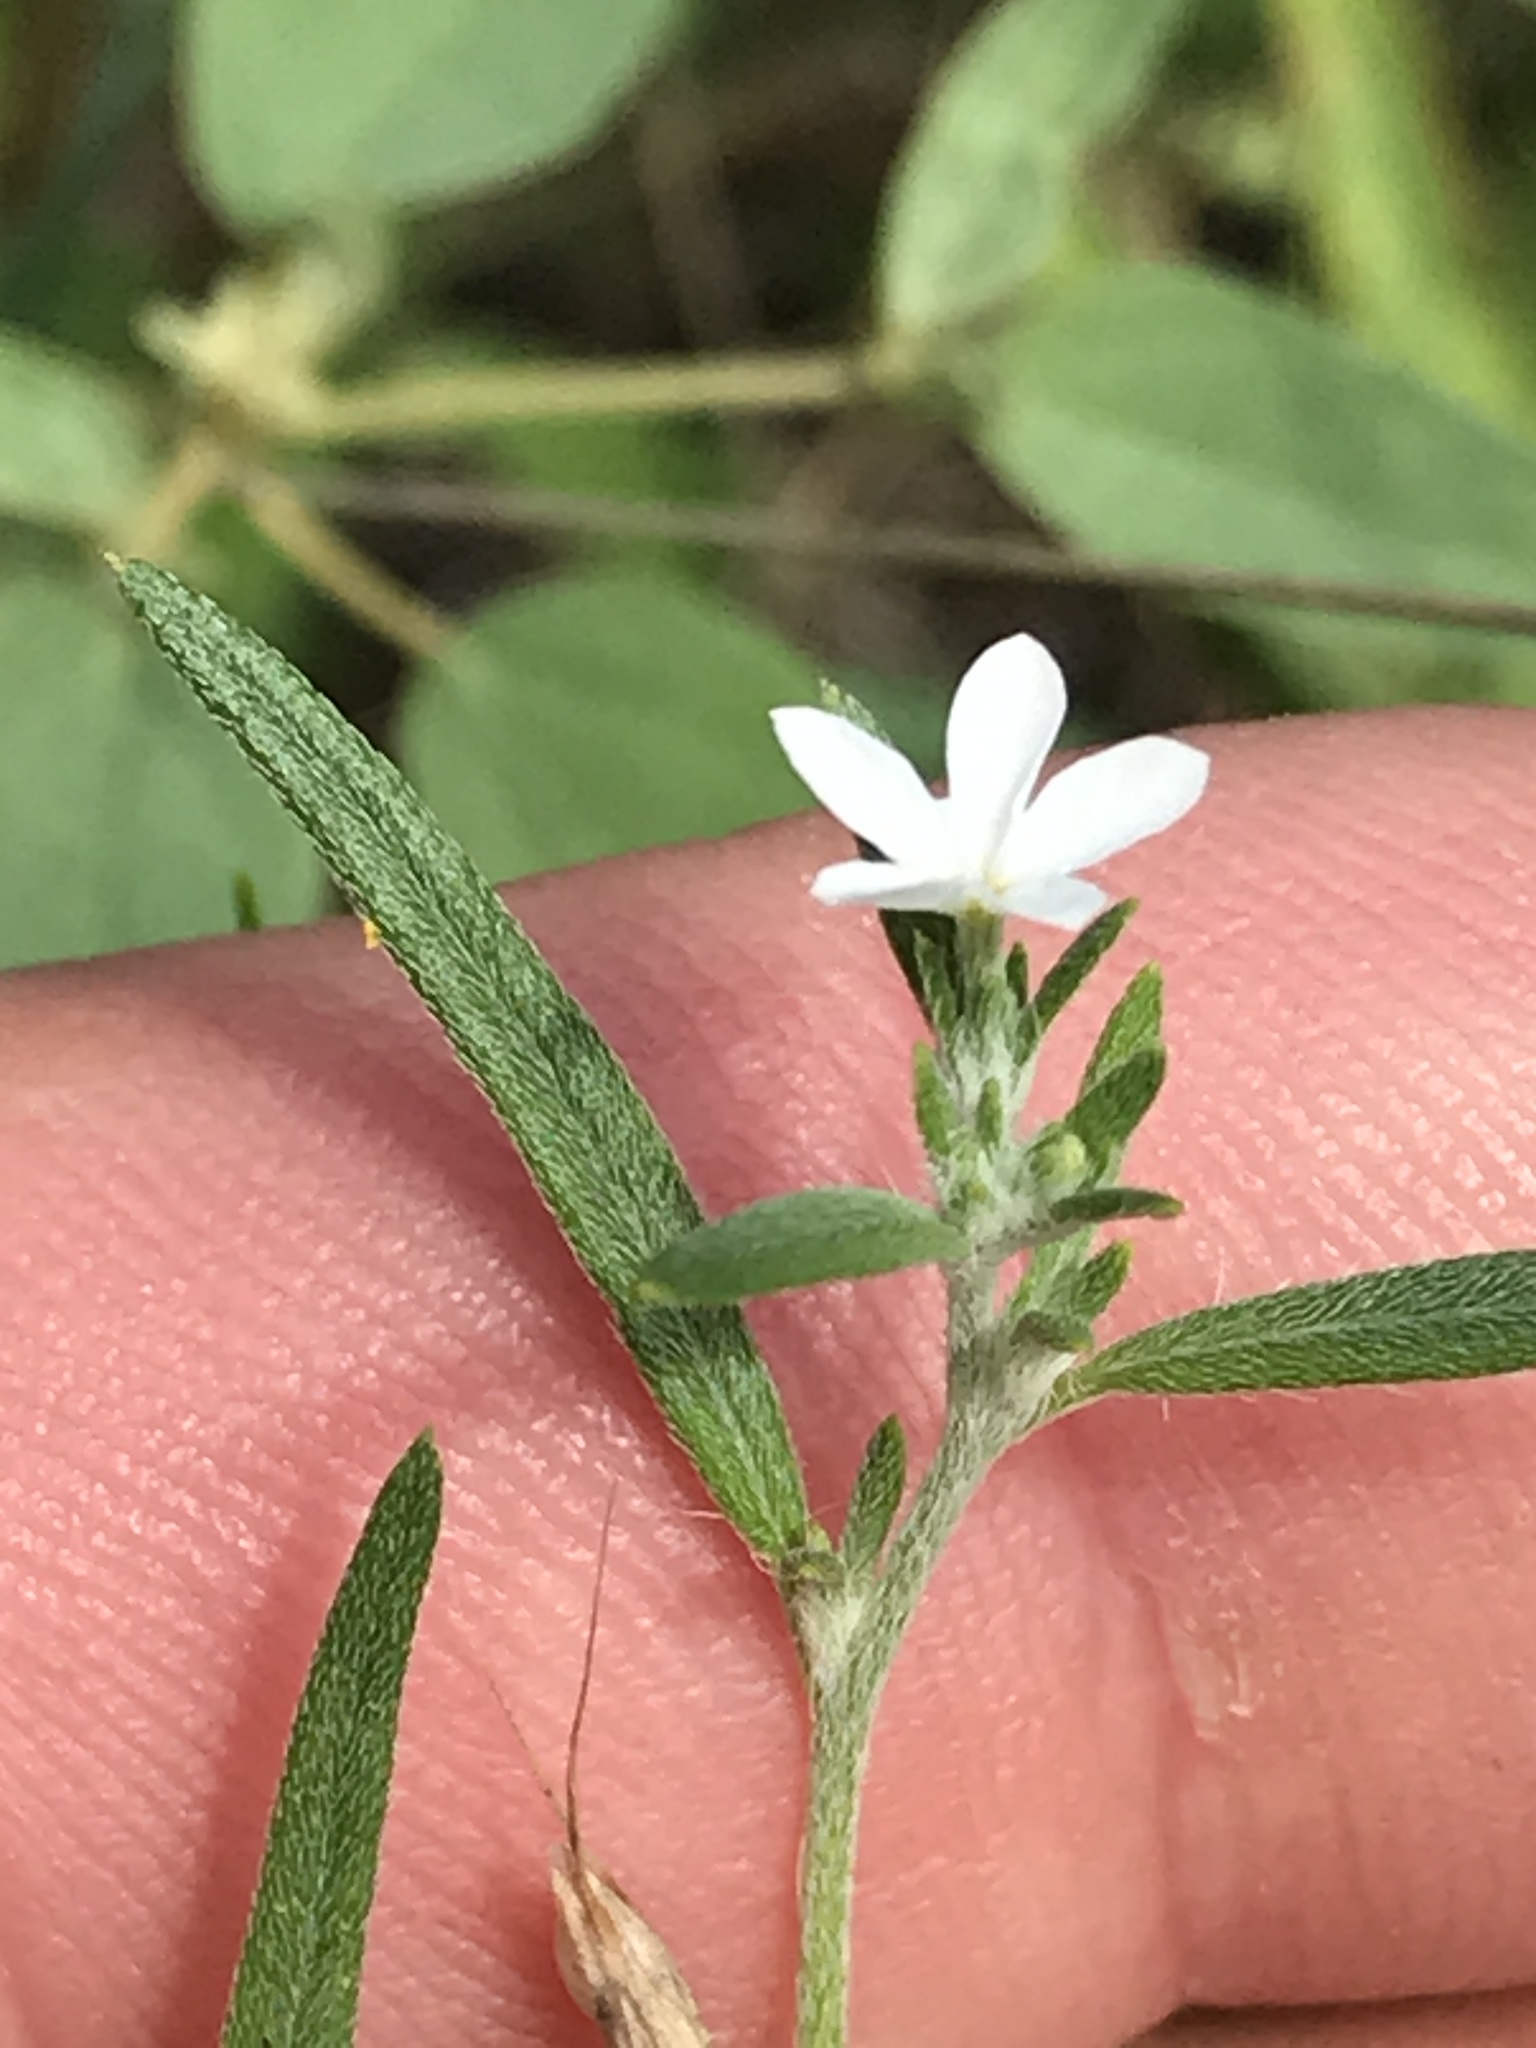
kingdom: Plantae
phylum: Tracheophyta
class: Magnoliopsida
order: Boraginales
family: Heliotropiaceae
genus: Euploca
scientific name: Euploca tenella
